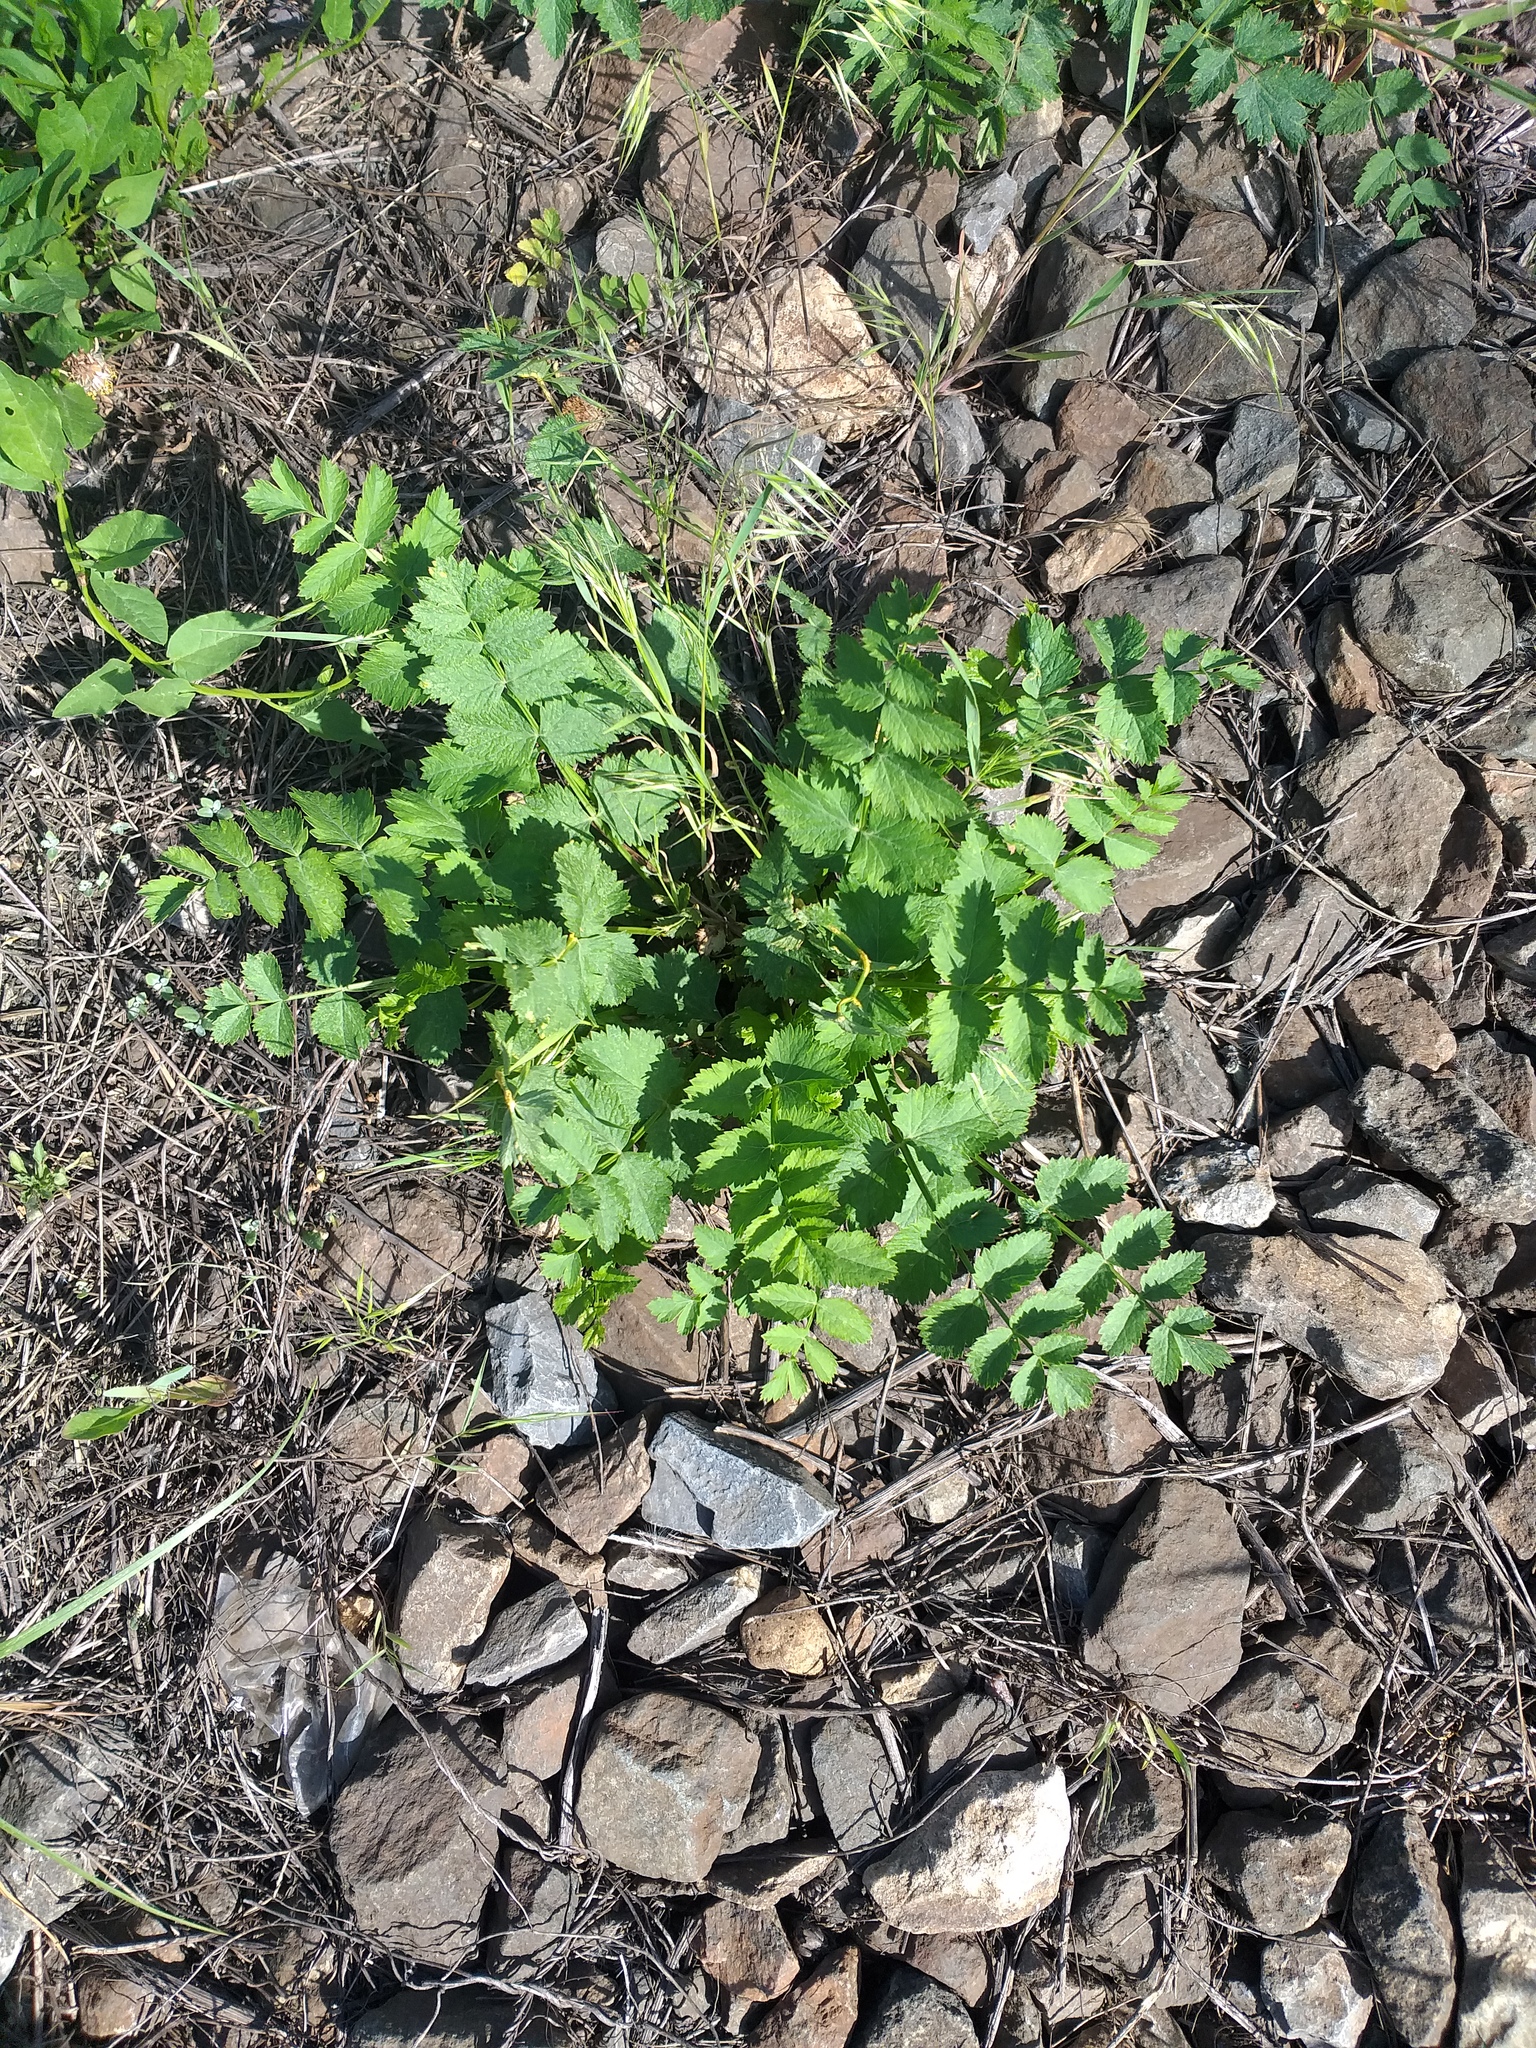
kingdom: Plantae
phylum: Tracheophyta
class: Magnoliopsida
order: Apiales
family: Apiaceae
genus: Pimpinella
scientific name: Pimpinella saxifraga
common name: Burnet-saxifrage
